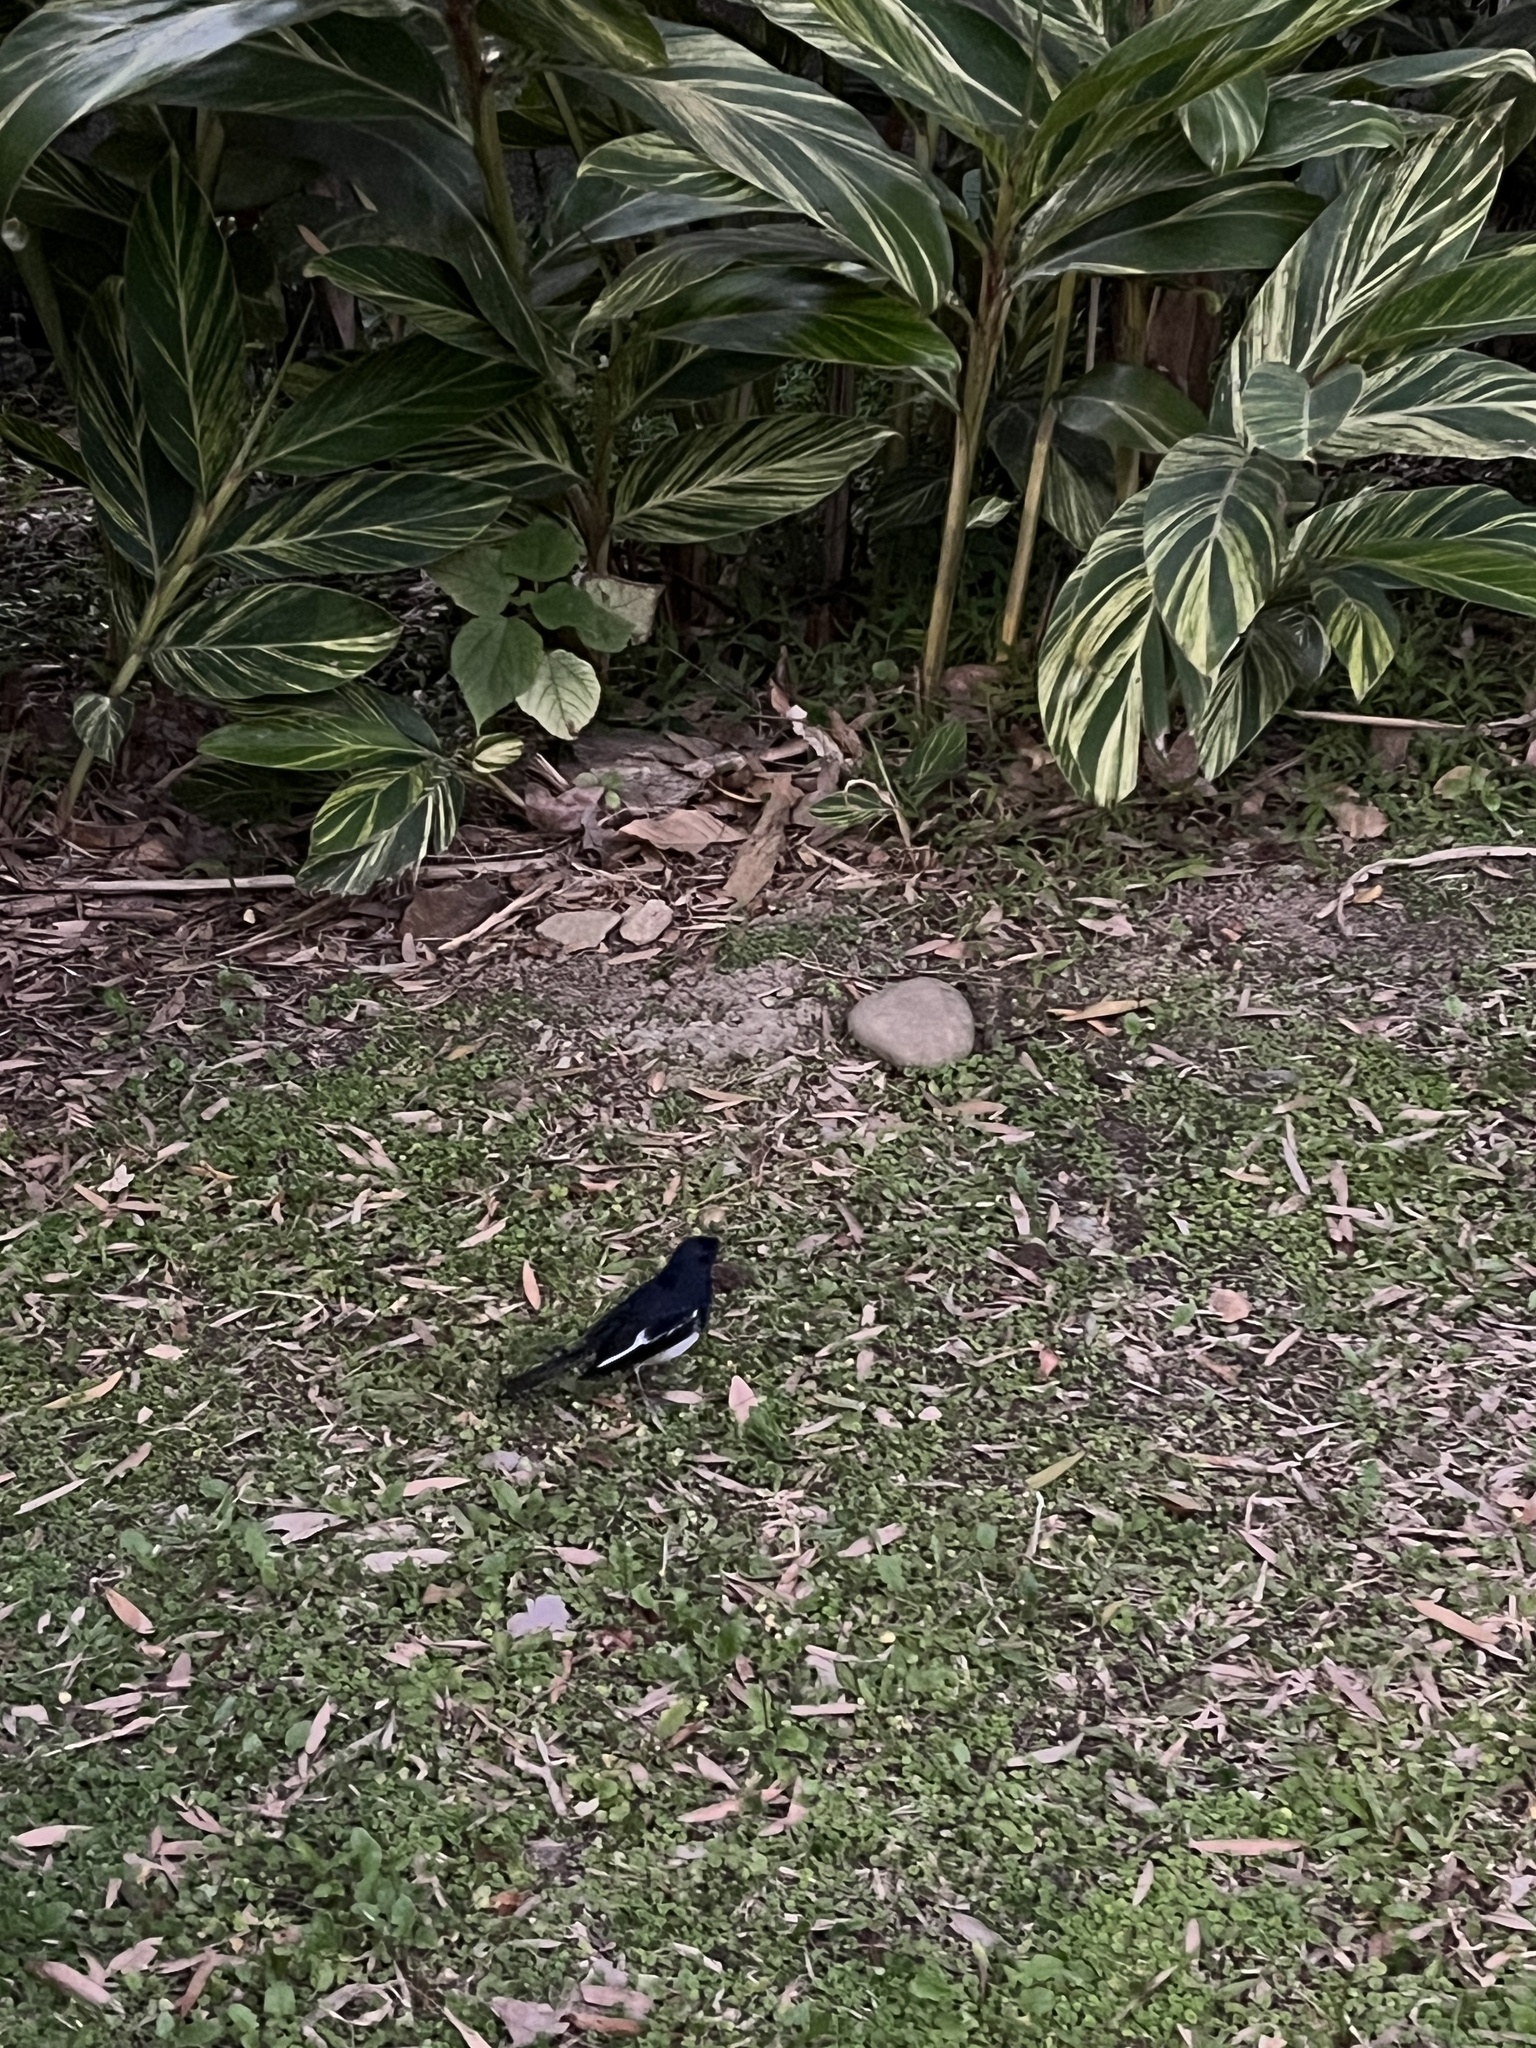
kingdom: Animalia
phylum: Chordata
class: Aves
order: Passeriformes
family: Muscicapidae
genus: Copsychus
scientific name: Copsychus saularis
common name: Oriental magpie-robin
